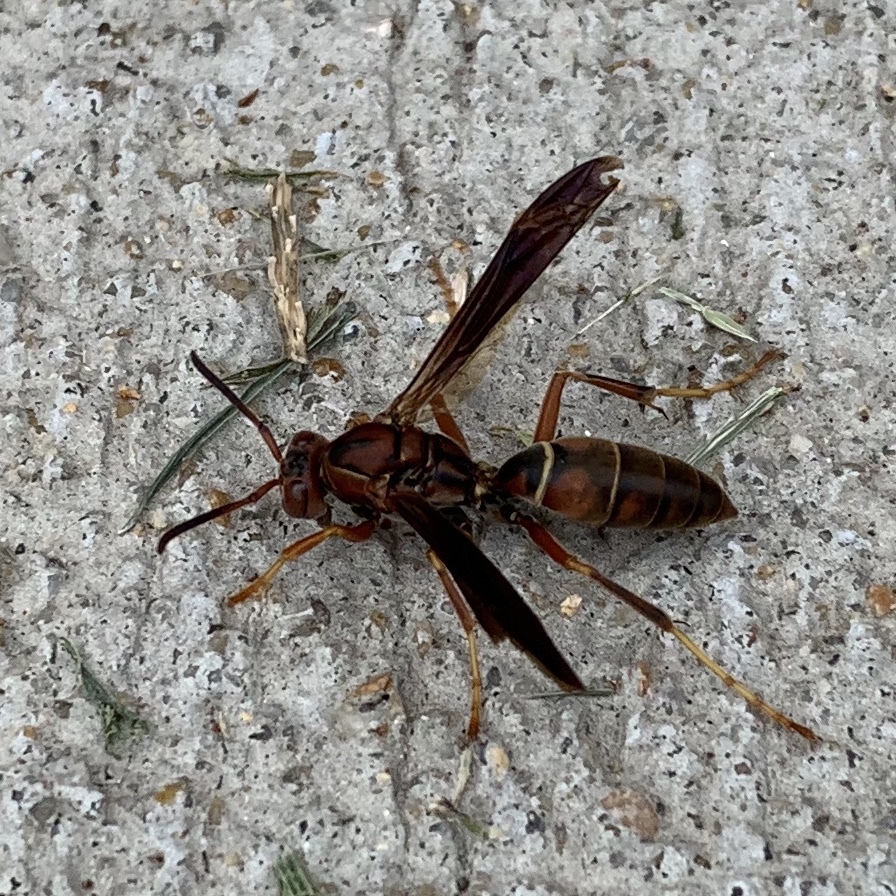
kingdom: Animalia
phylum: Arthropoda
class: Insecta
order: Hymenoptera
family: Eumenidae
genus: Polistes
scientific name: Polistes fuscatus
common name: Dark paper wasp
